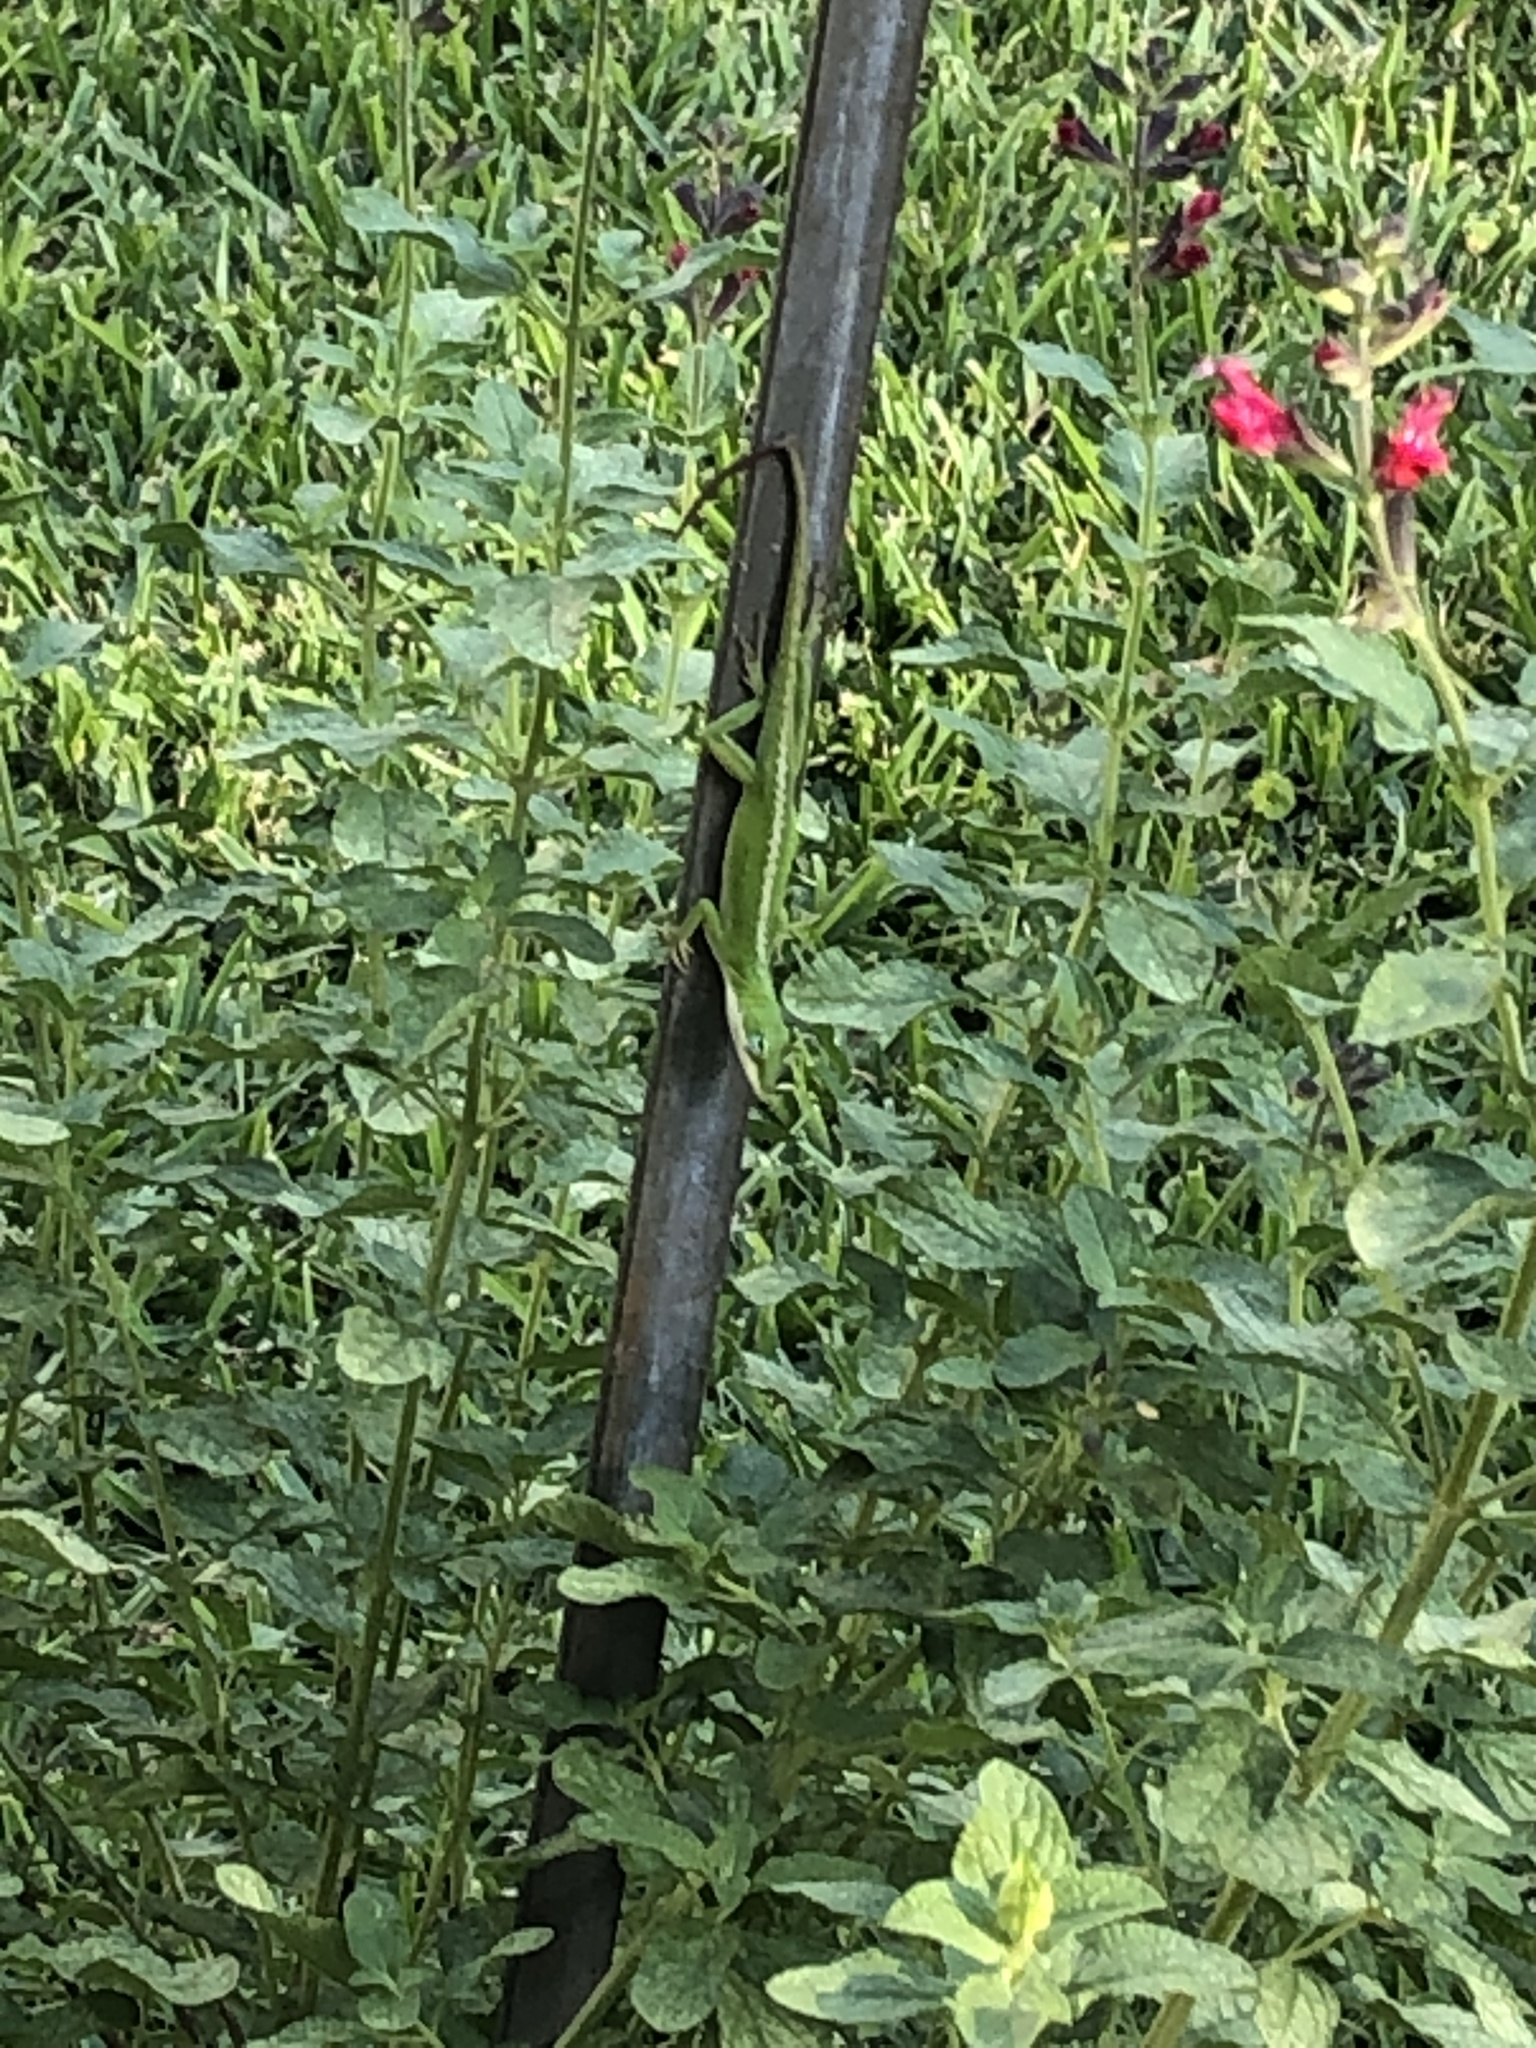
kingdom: Animalia
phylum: Chordata
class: Squamata
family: Dactyloidae
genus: Anolis
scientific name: Anolis carolinensis
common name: Green anole
